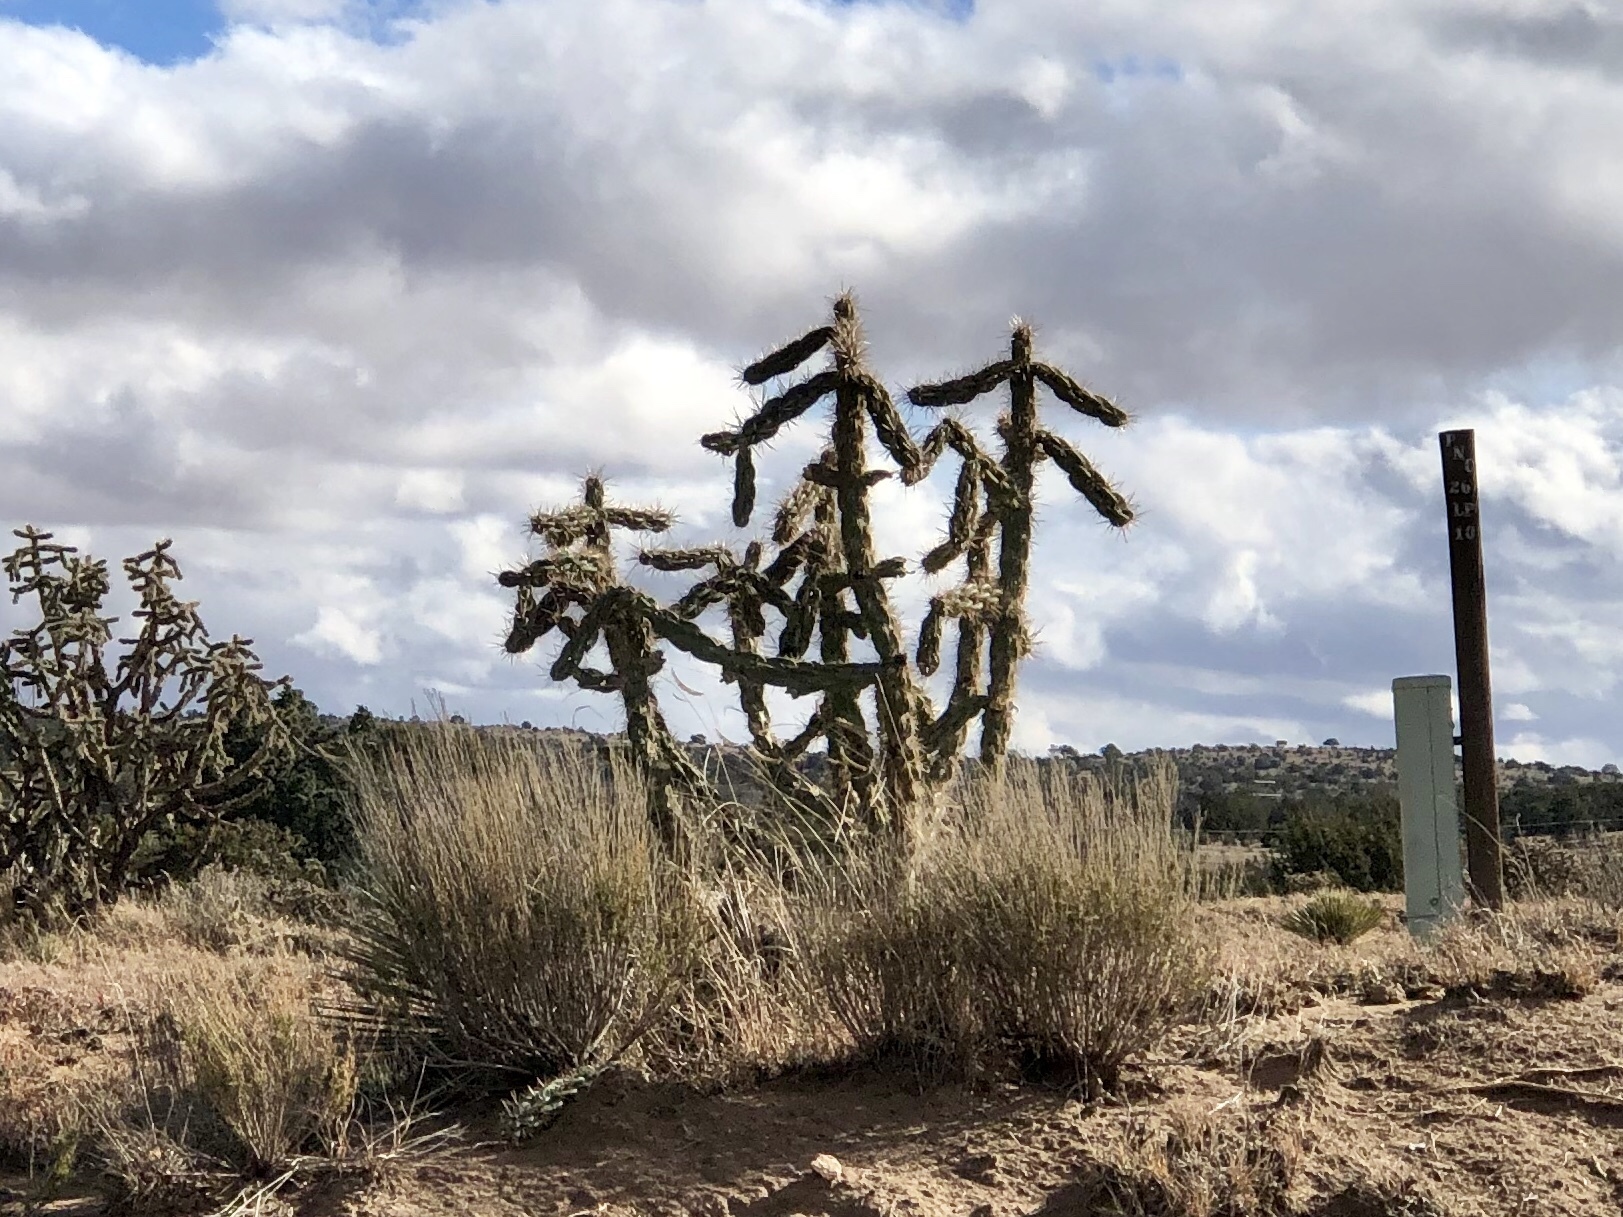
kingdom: Plantae
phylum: Tracheophyta
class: Magnoliopsida
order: Caryophyllales
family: Cactaceae
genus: Cylindropuntia
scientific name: Cylindropuntia imbricata
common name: Candelabrum cactus
